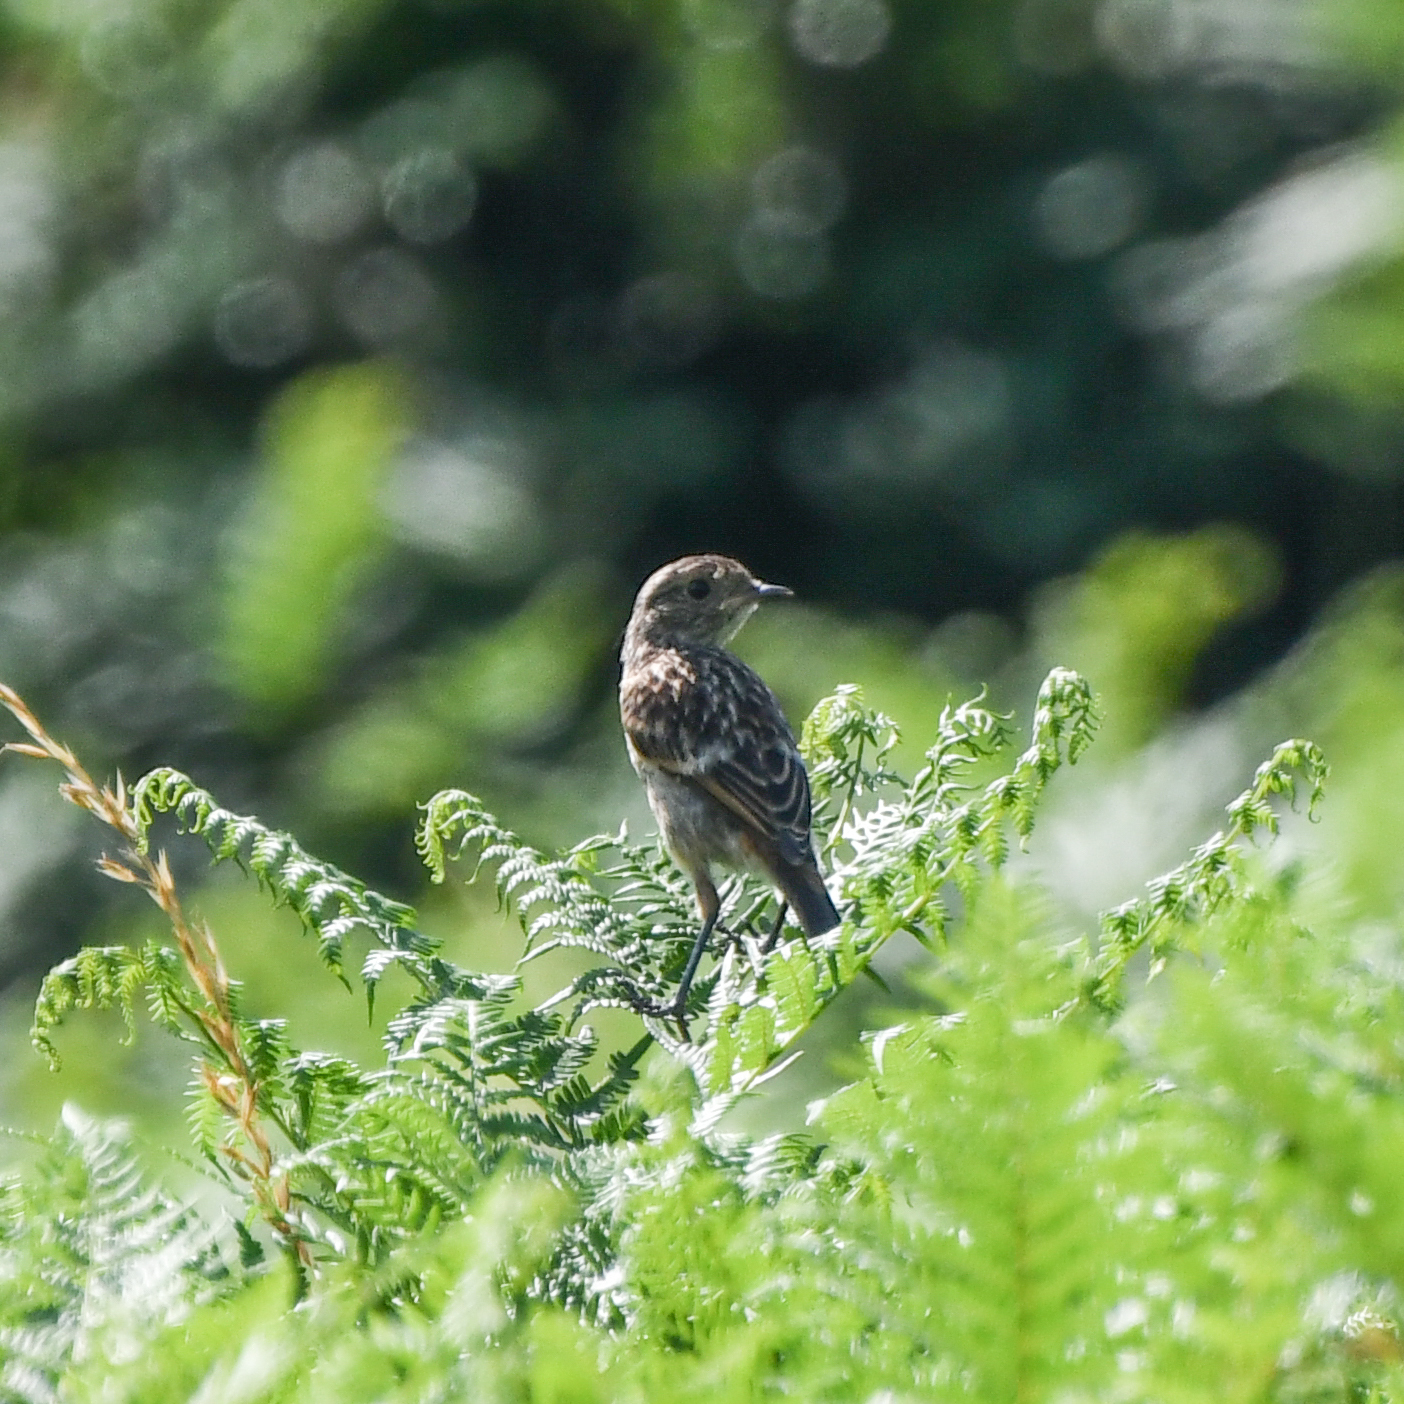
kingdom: Animalia
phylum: Chordata
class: Aves
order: Passeriformes
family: Muscicapidae
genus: Saxicola
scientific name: Saxicola rubicola
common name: European stonechat
